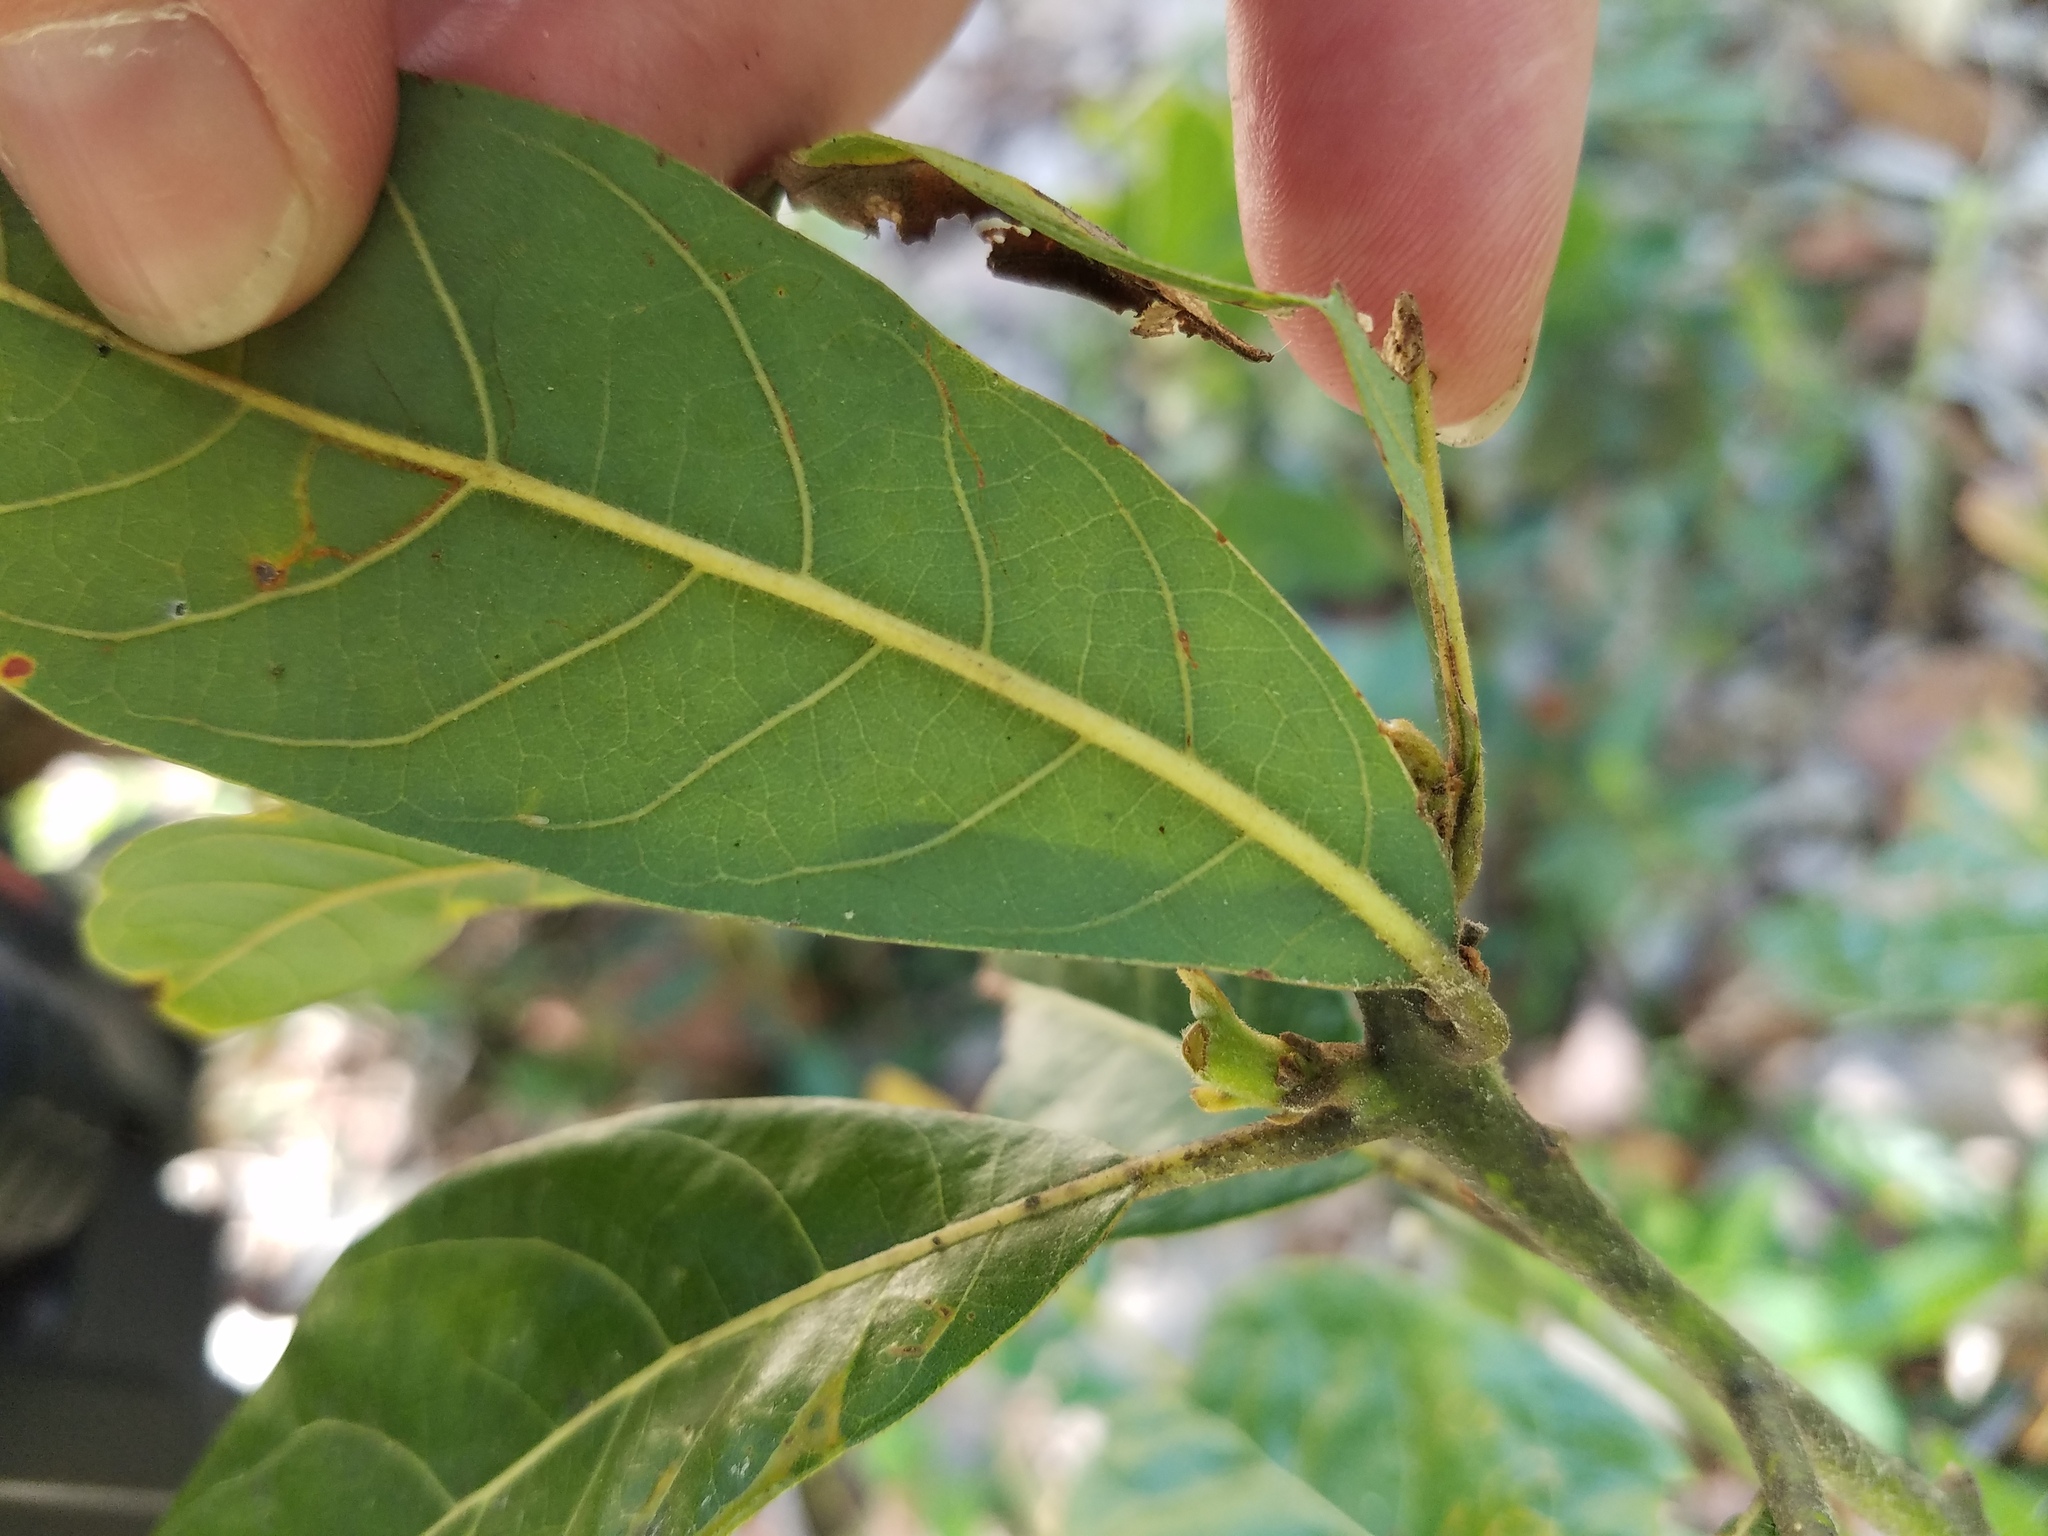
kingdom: Plantae
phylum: Tracheophyta
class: Magnoliopsida
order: Laurales
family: Lauraceae
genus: Persea
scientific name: Persea palustris
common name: Swampbay
